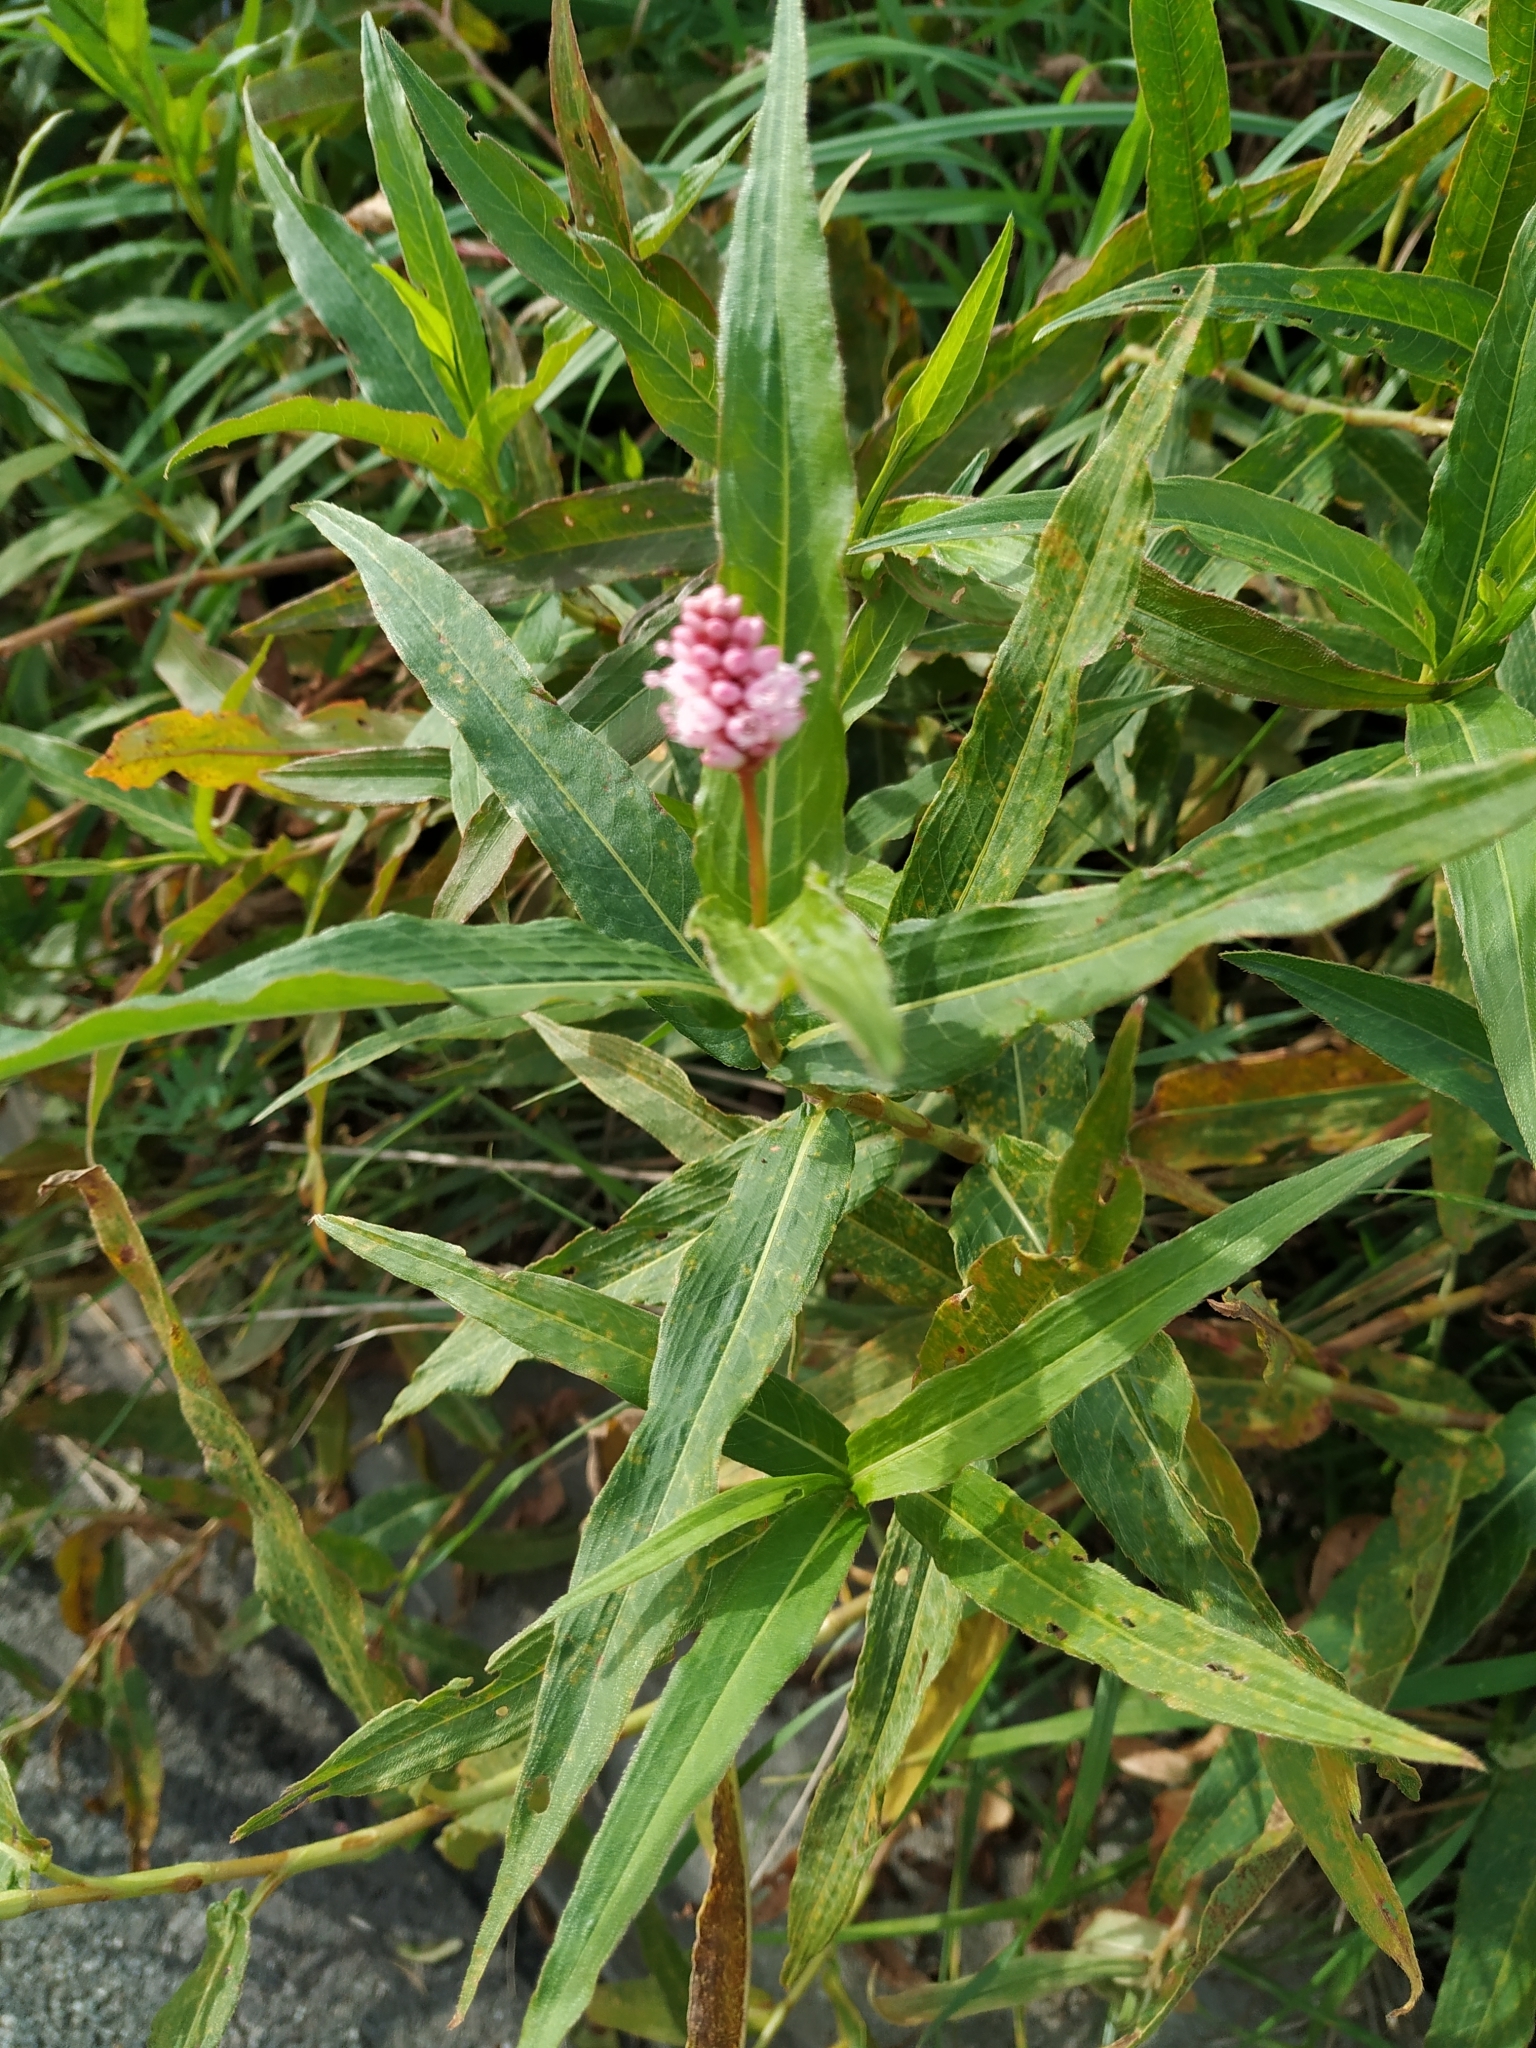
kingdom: Plantae
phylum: Tracheophyta
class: Magnoliopsida
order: Caryophyllales
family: Polygonaceae
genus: Persicaria
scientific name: Persicaria amphibia
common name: Amphibious bistort
